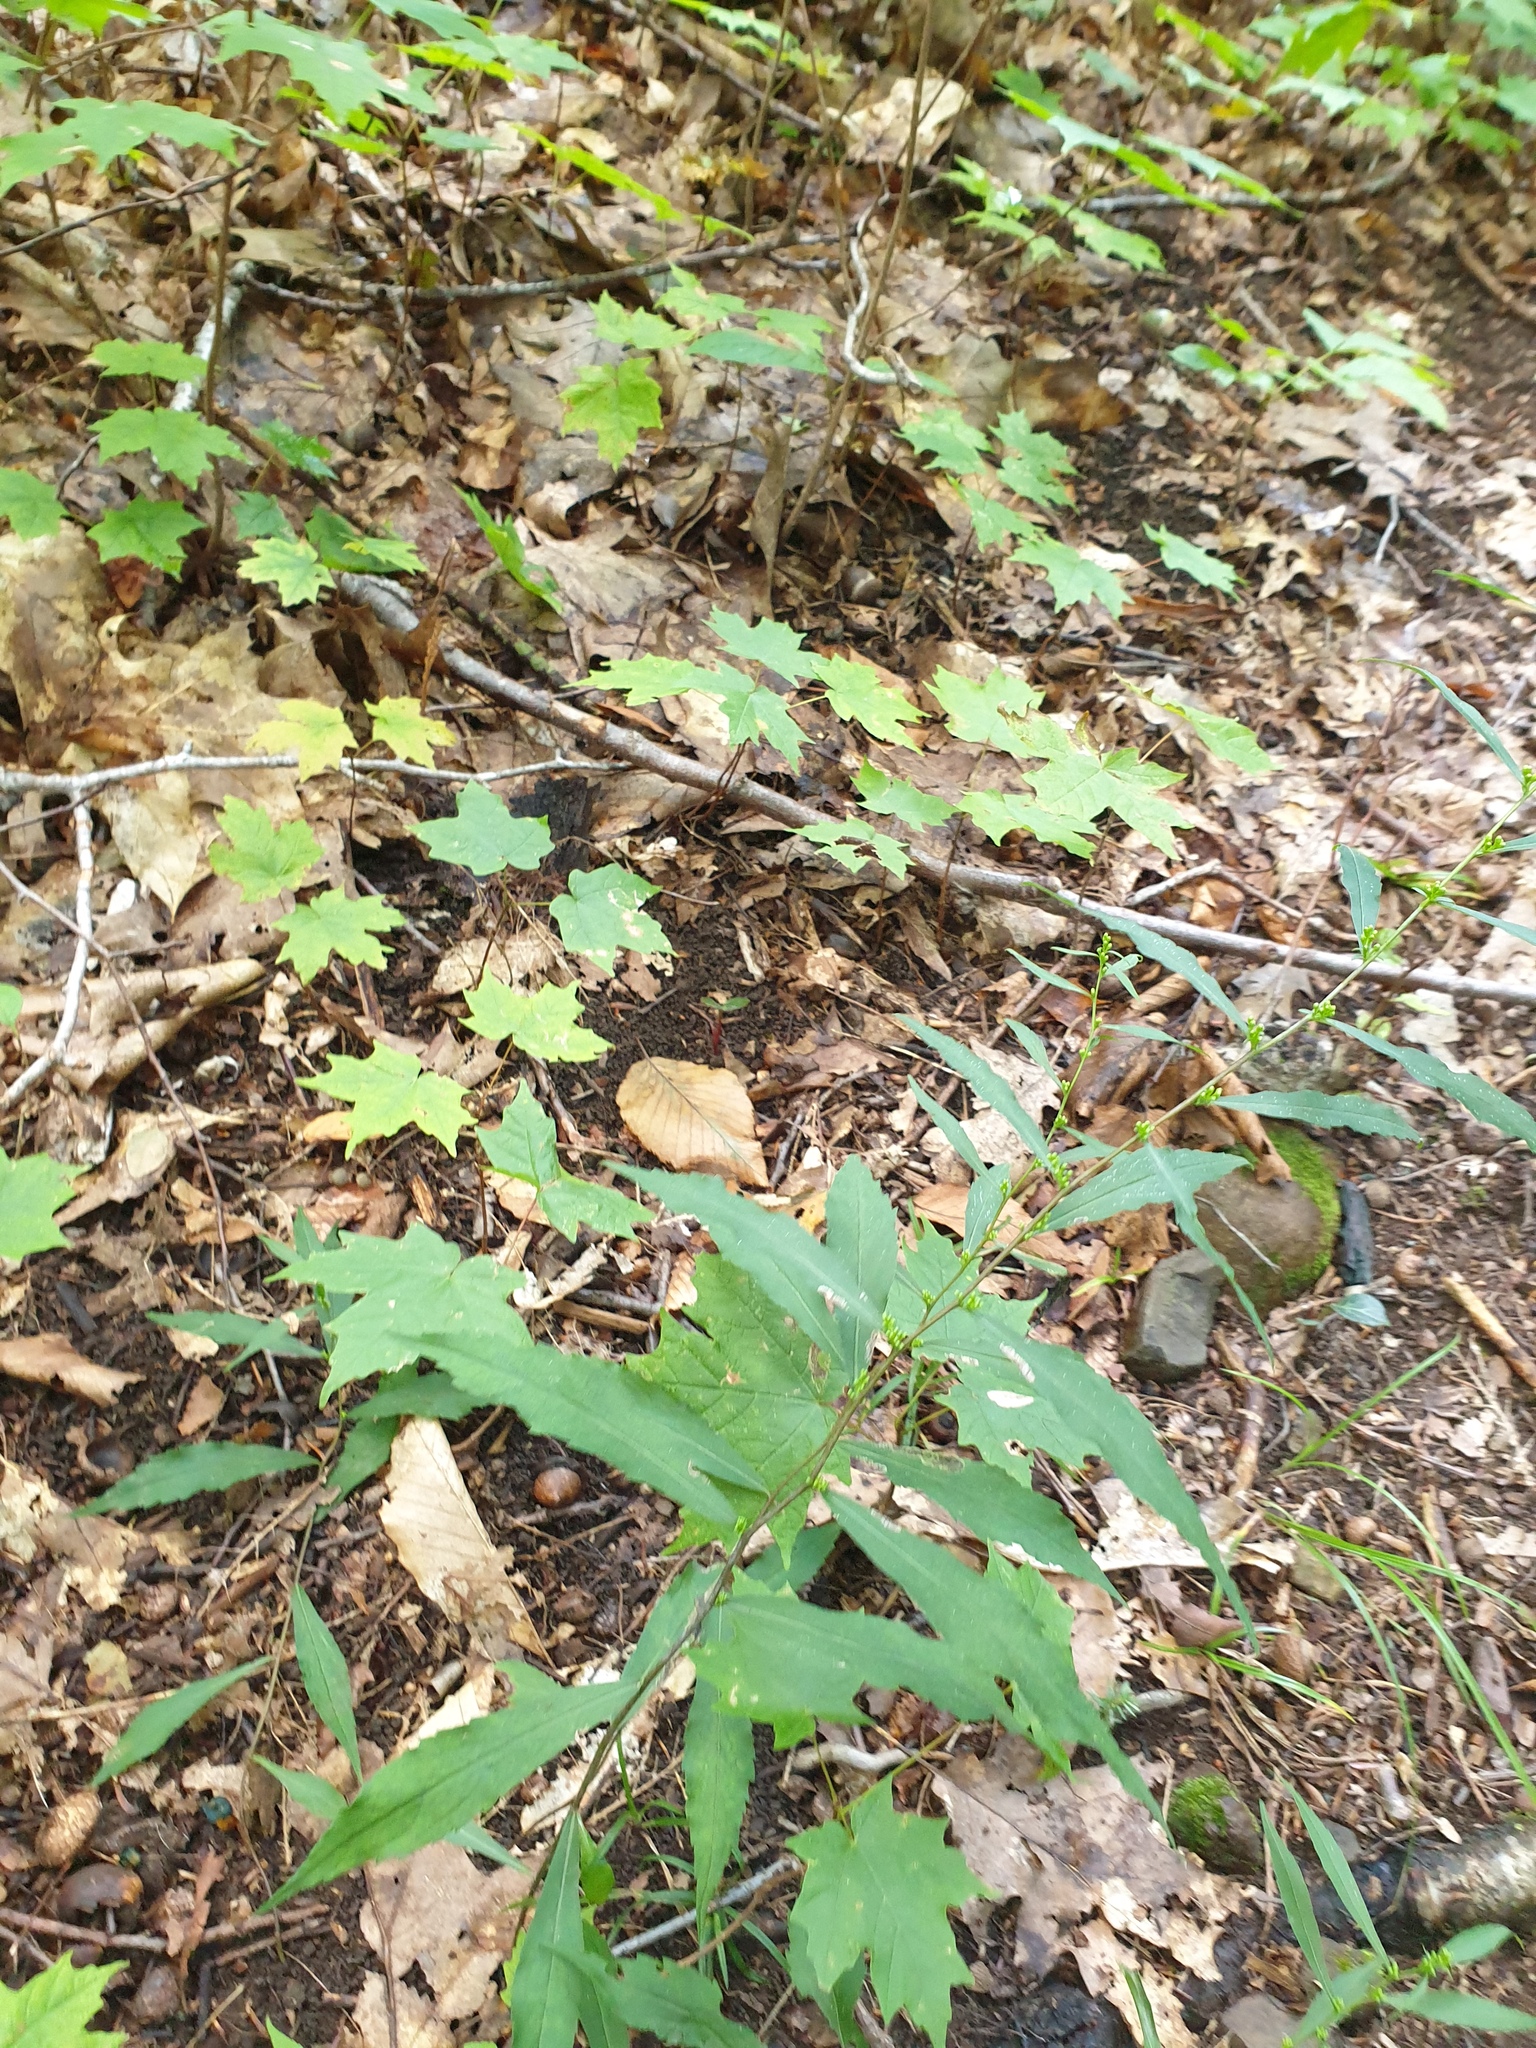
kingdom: Plantae
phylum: Tracheophyta
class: Magnoliopsida
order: Asterales
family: Asteraceae
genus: Solidago
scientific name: Solidago caesia
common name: Woodland goldenrod
